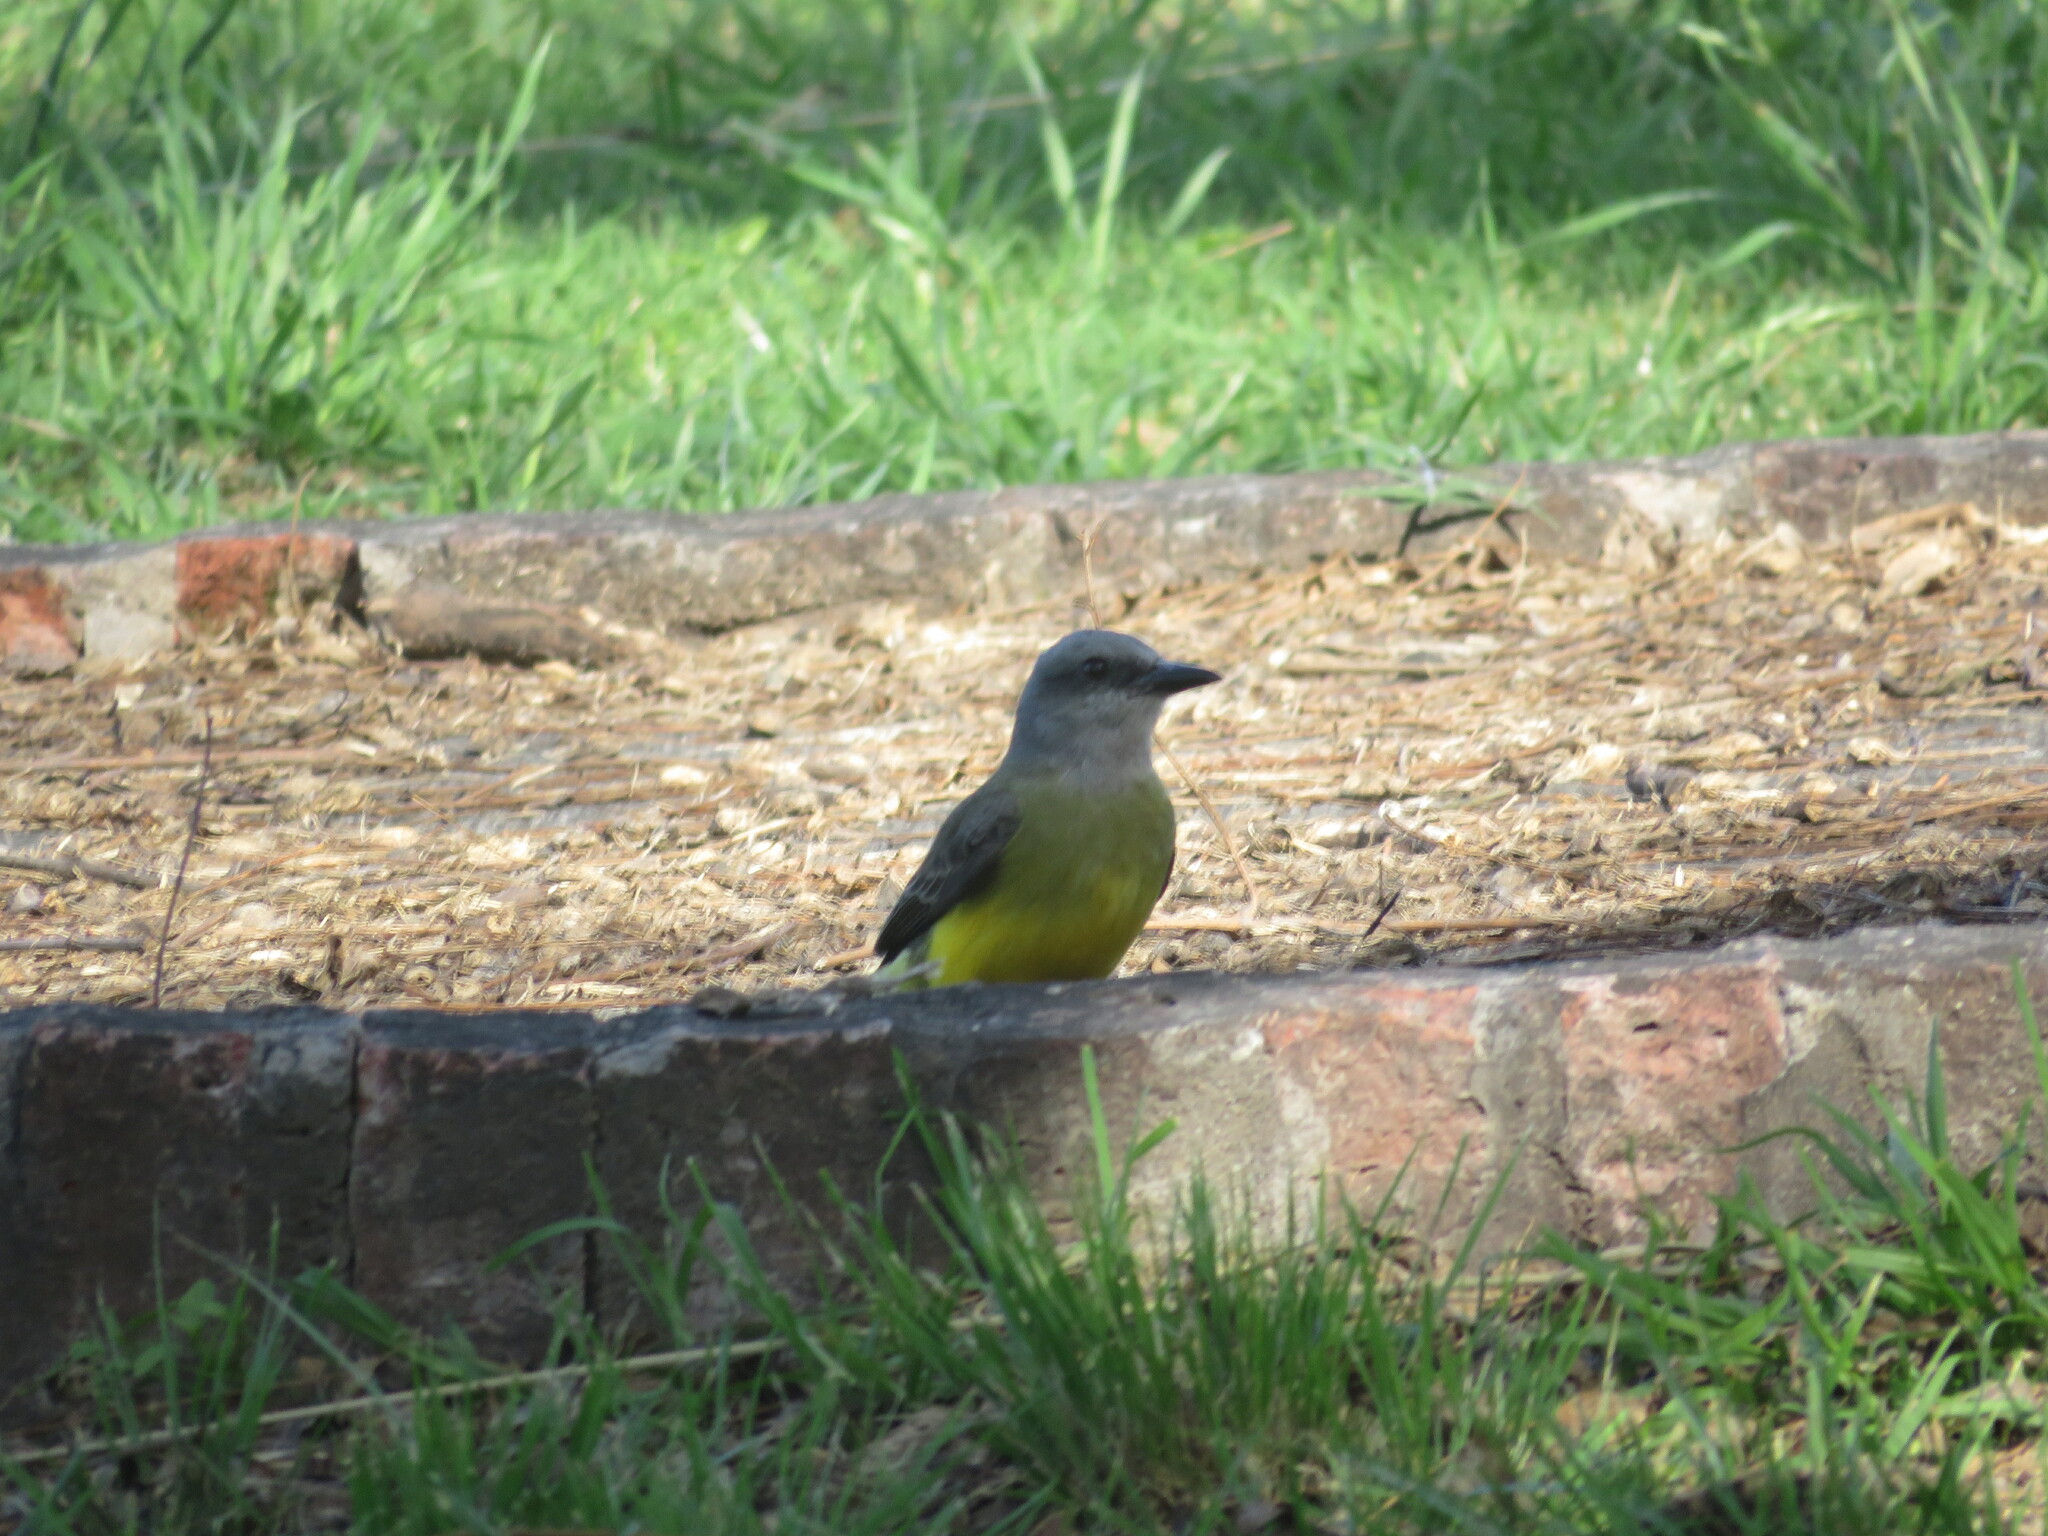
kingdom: Animalia
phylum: Chordata
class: Aves
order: Passeriformes
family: Tyrannidae
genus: Tyrannus
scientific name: Tyrannus melancholicus
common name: Tropical kingbird
